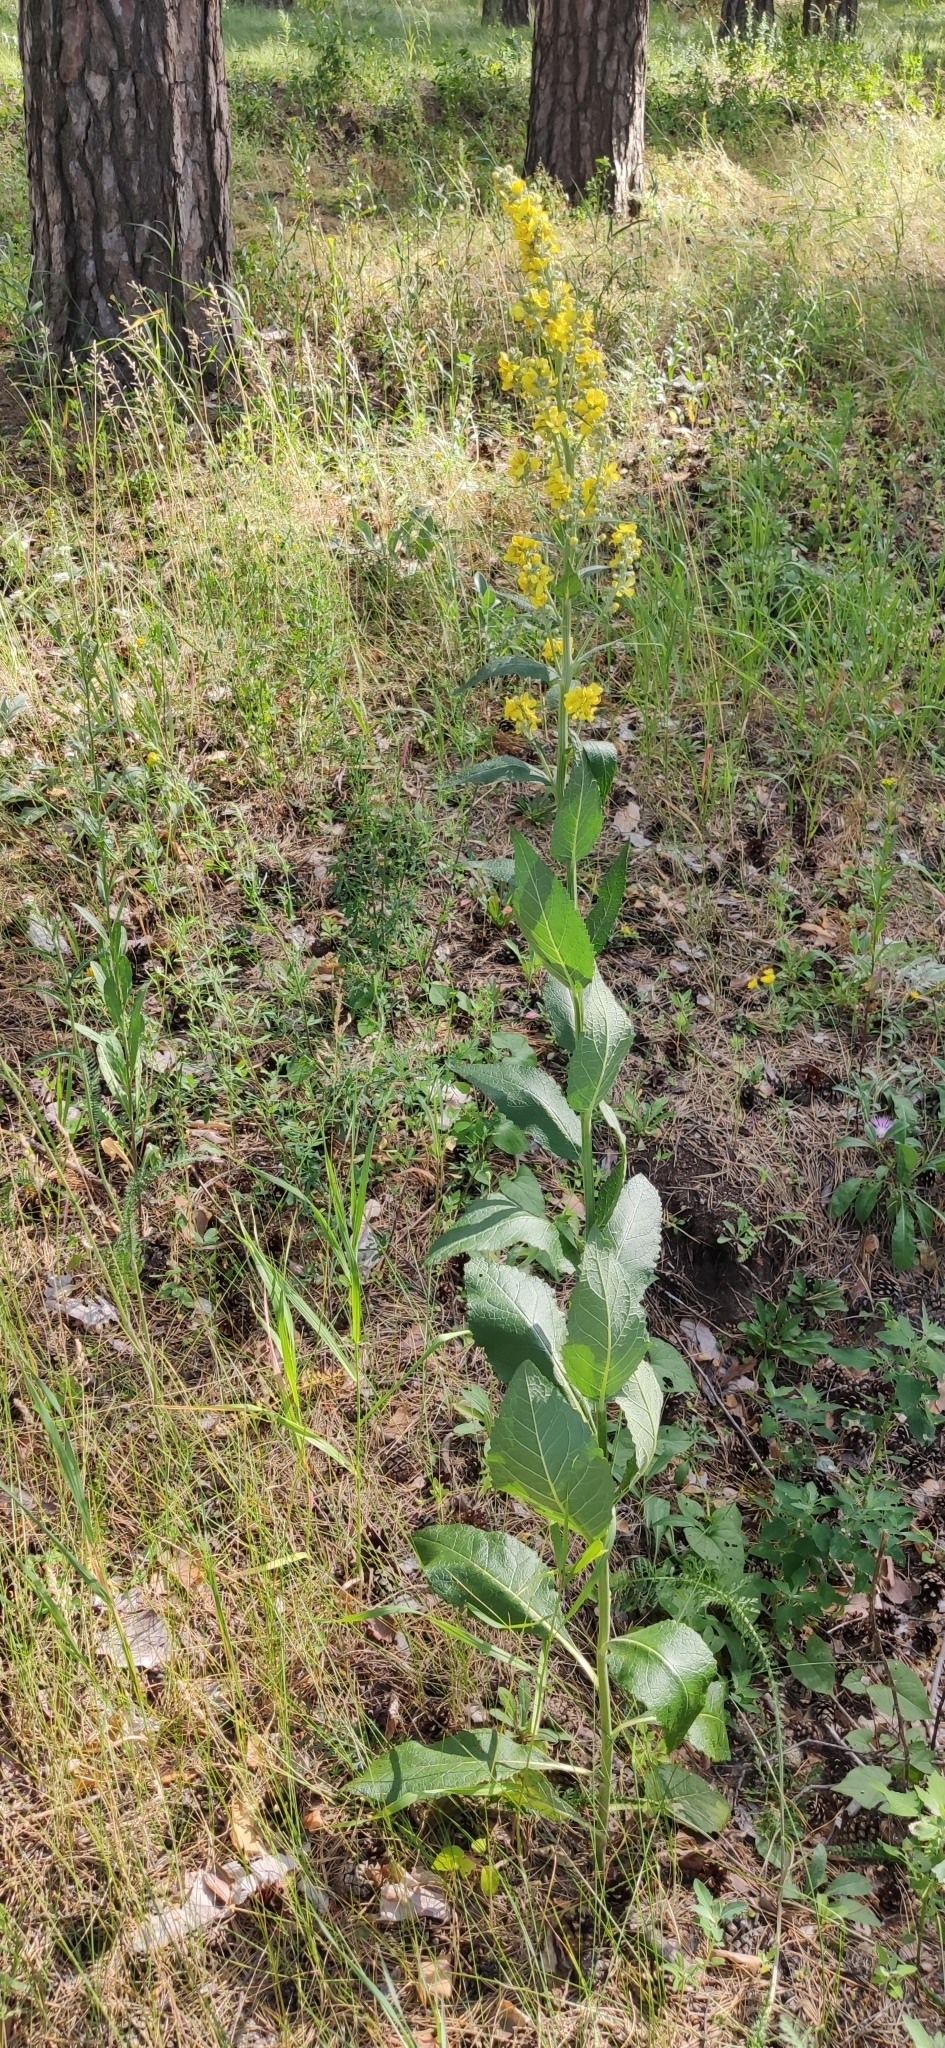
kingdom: Plantae
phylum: Tracheophyta
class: Magnoliopsida
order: Lamiales
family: Scrophulariaceae
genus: Verbascum
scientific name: Verbascum lychnitis
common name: White mullein
